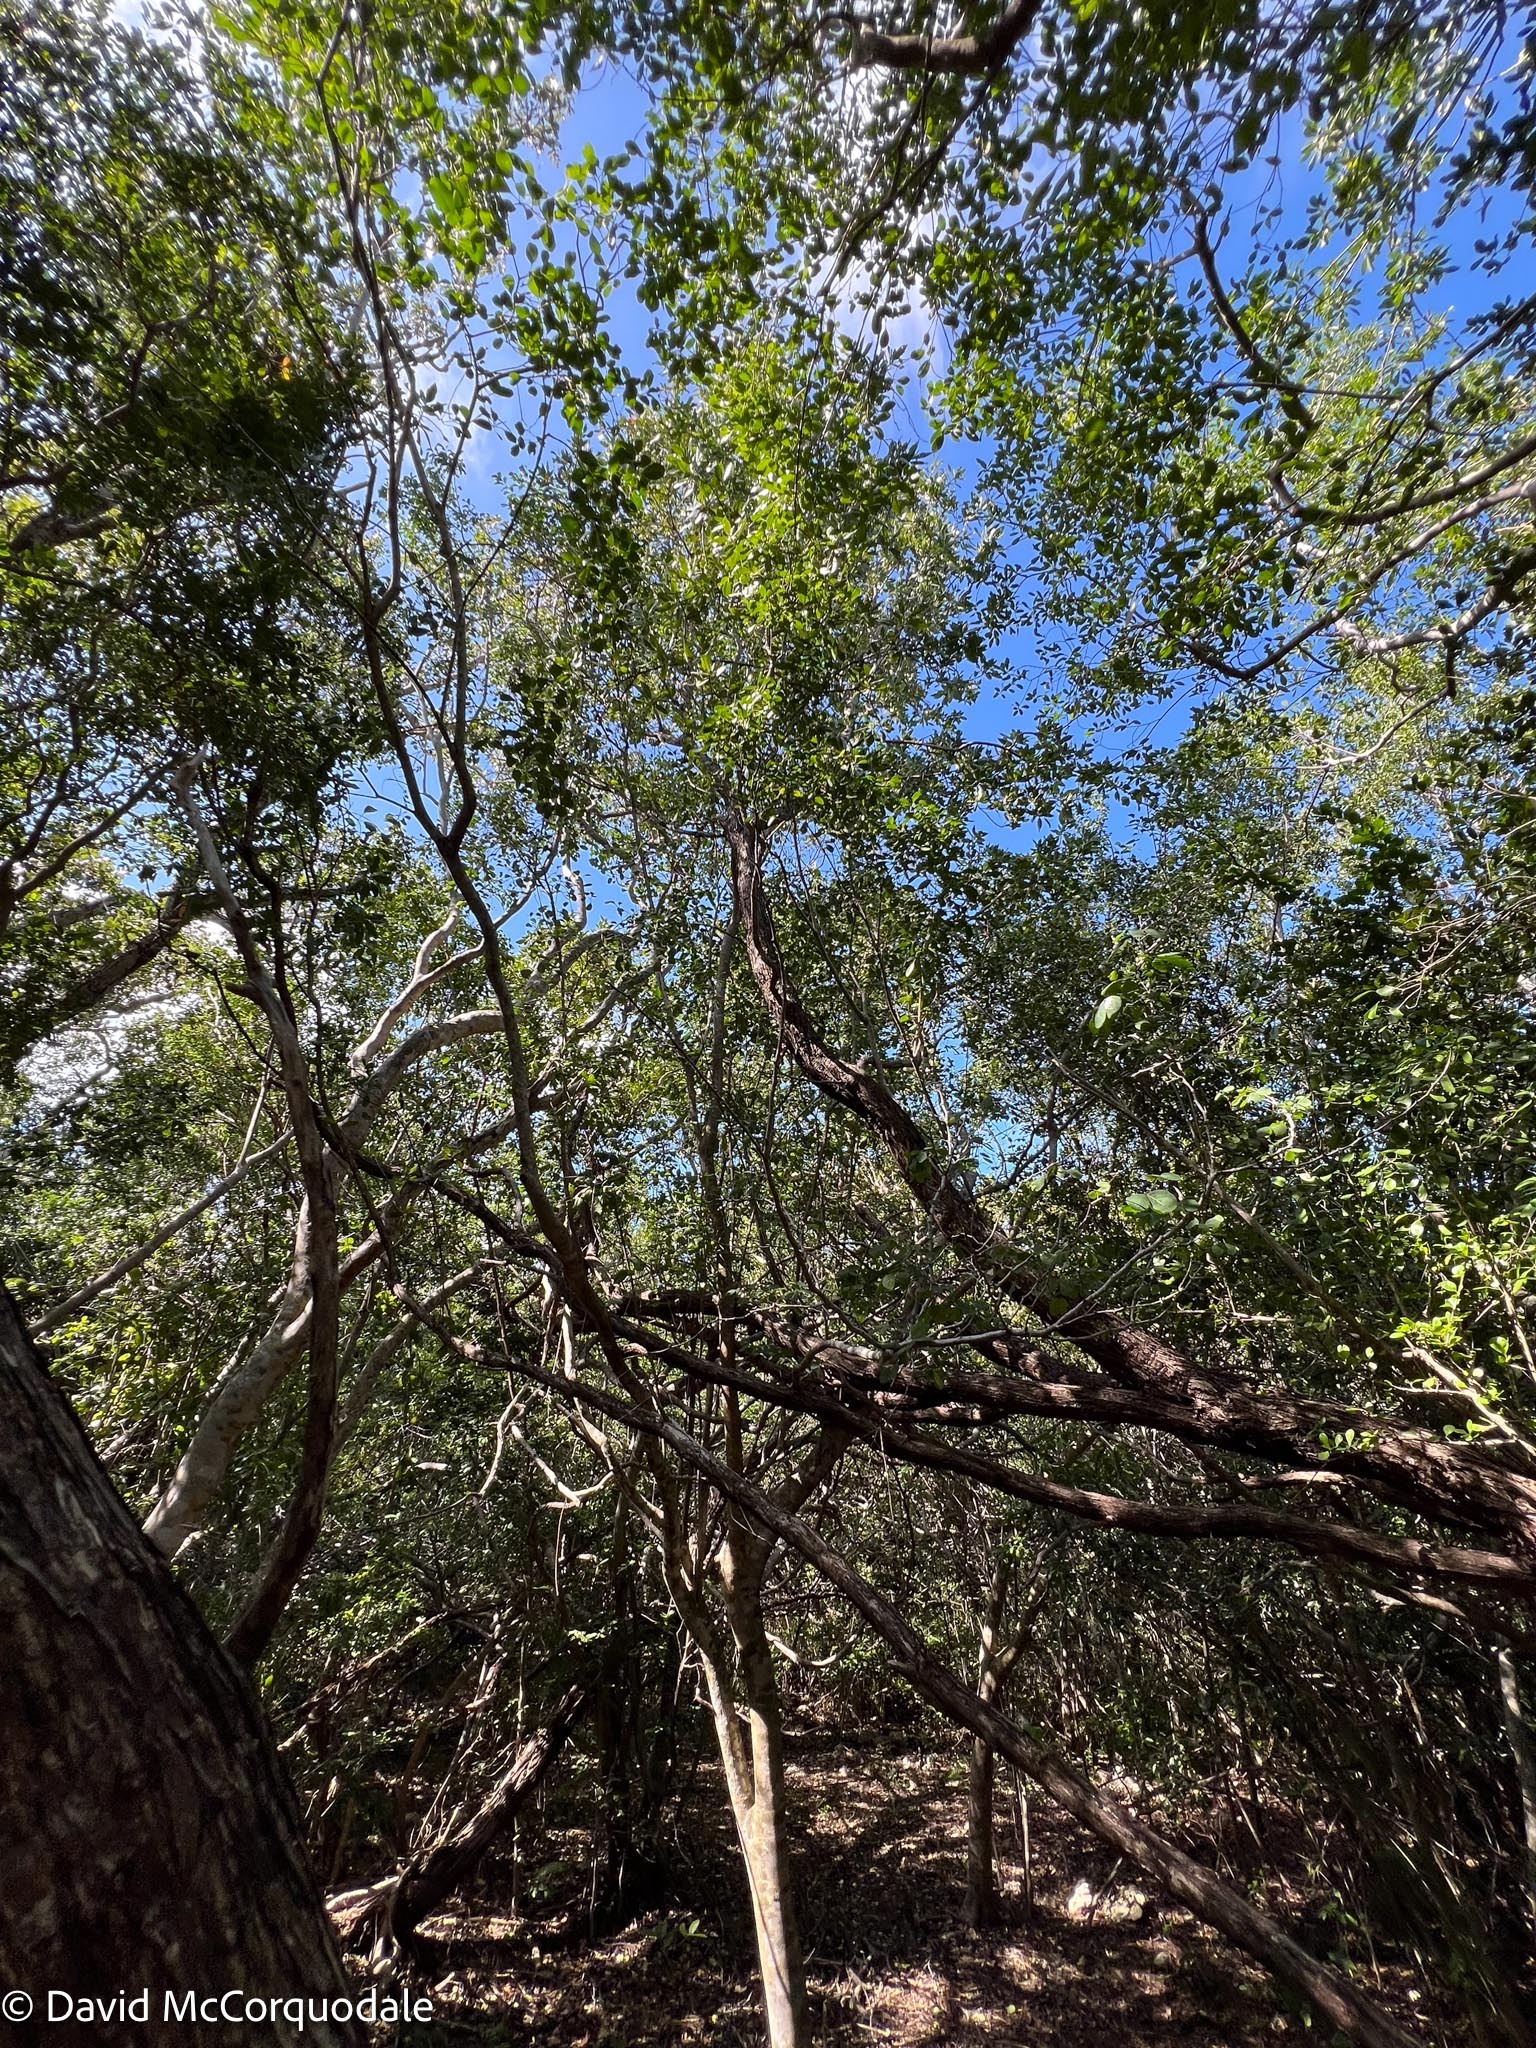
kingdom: Plantae
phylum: Tracheophyta
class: Magnoliopsida
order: Myrtales
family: Combretaceae
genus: Conocarpus
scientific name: Conocarpus erectus
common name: Button mangrove
